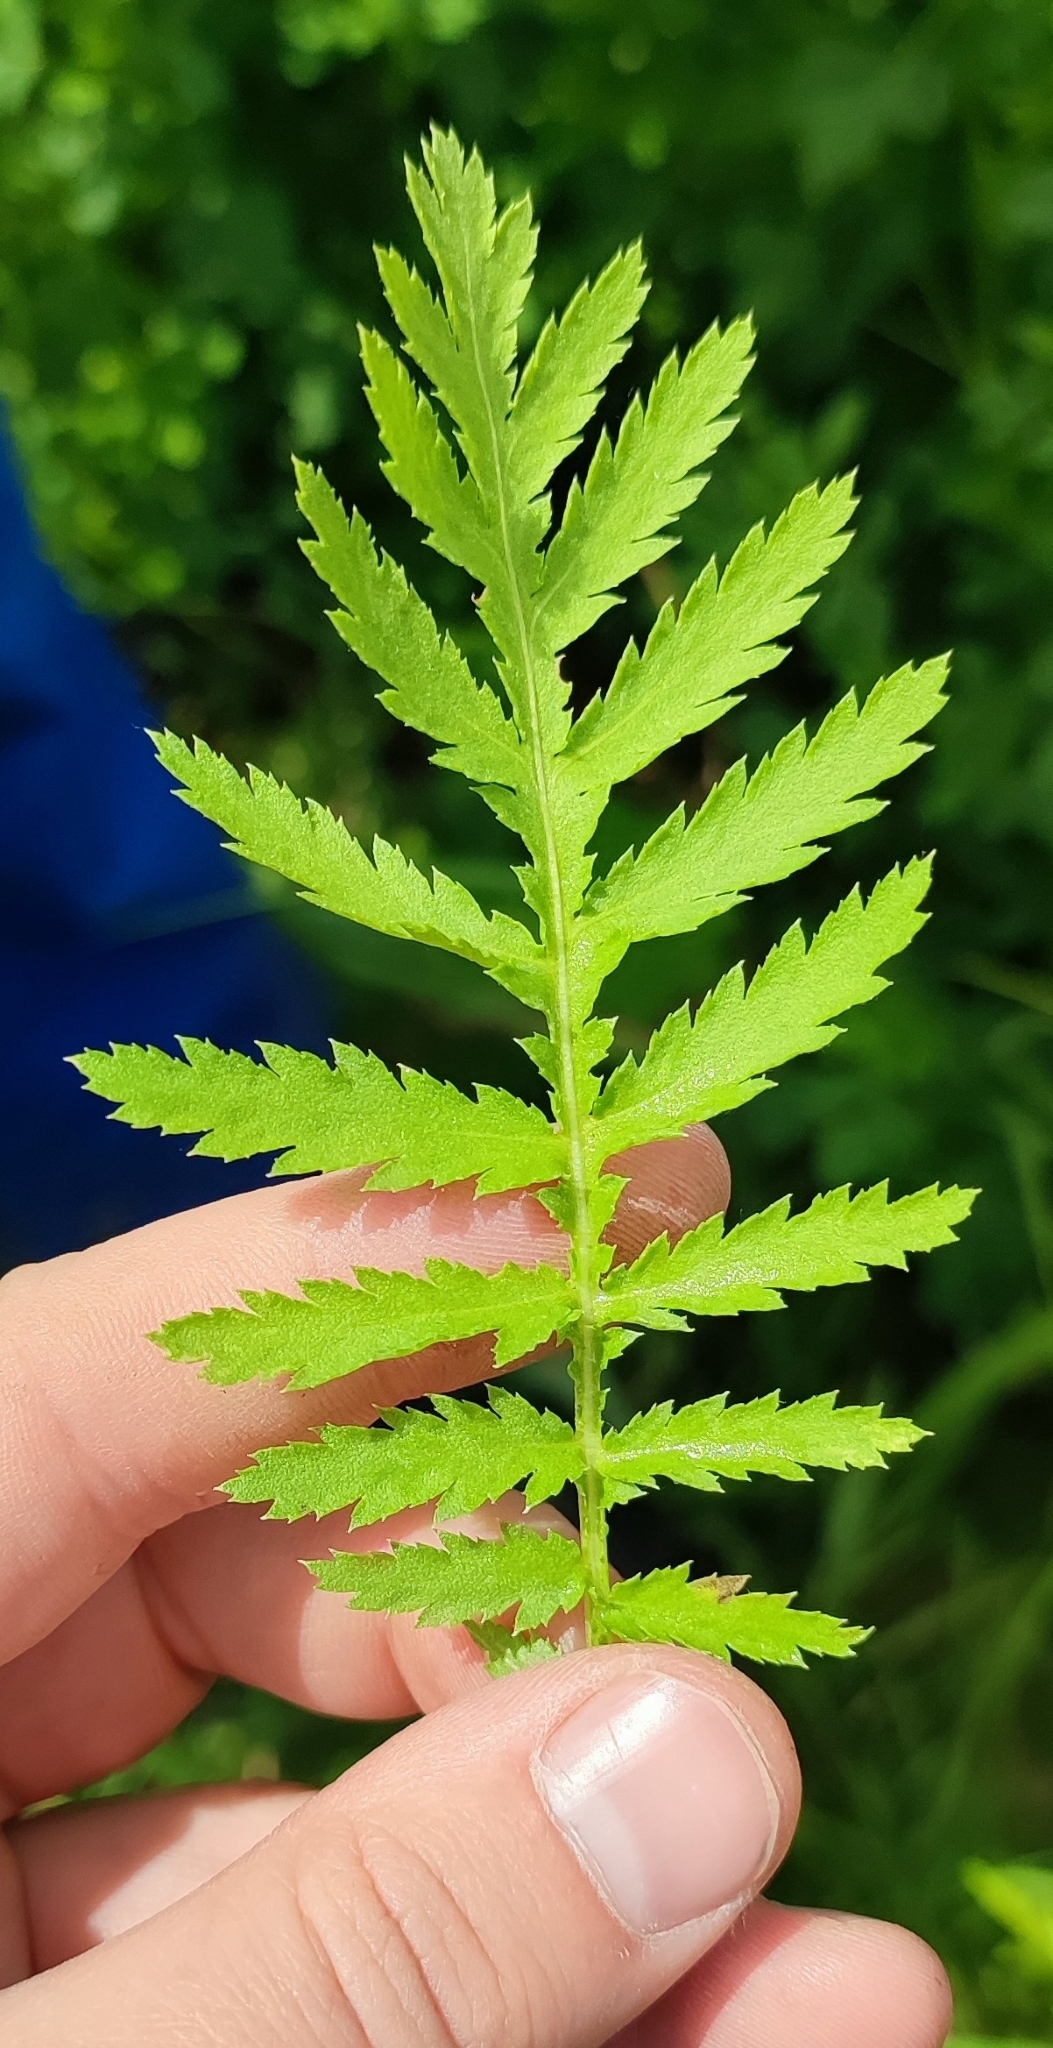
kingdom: Plantae
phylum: Tracheophyta
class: Magnoliopsida
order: Asterales
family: Asteraceae
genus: Tanacetum
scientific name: Tanacetum vulgare
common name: Common tansy
